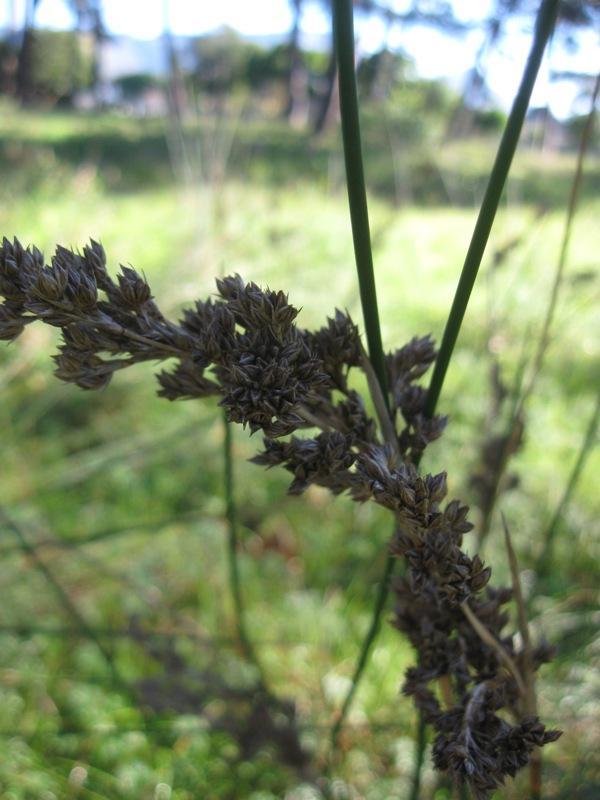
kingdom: Plantae
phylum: Tracheophyta
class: Liliopsida
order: Poales
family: Juncaceae
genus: Juncus
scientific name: Juncus kraussii
